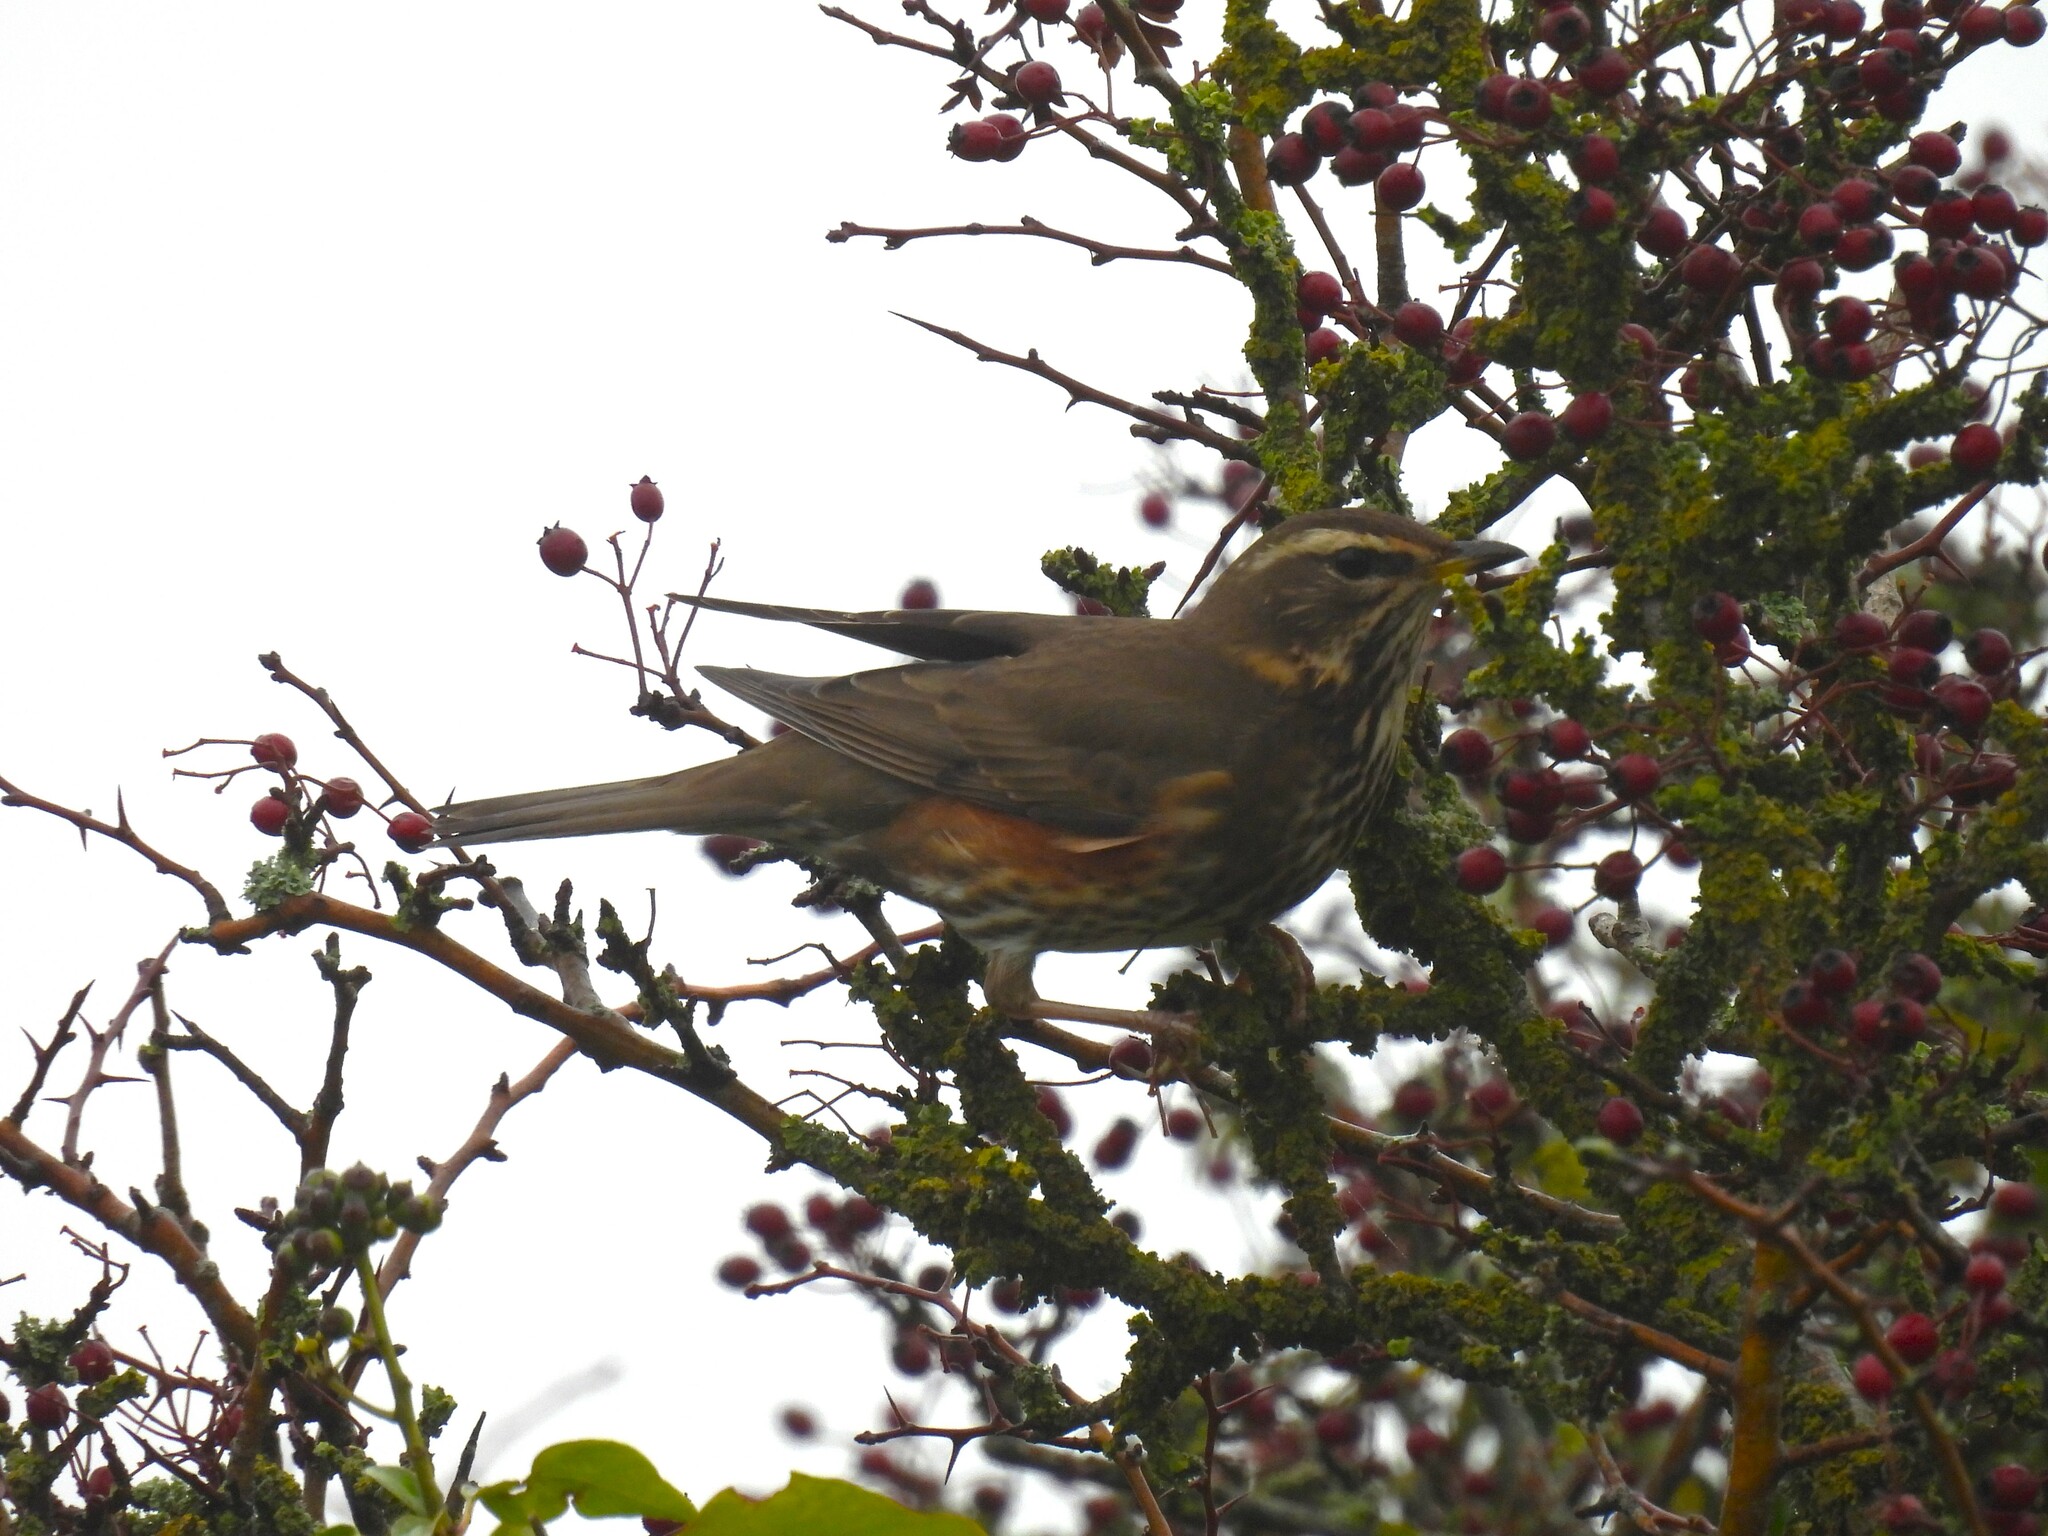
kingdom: Animalia
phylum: Chordata
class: Aves
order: Passeriformes
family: Turdidae
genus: Turdus
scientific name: Turdus iliacus
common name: Redwing
